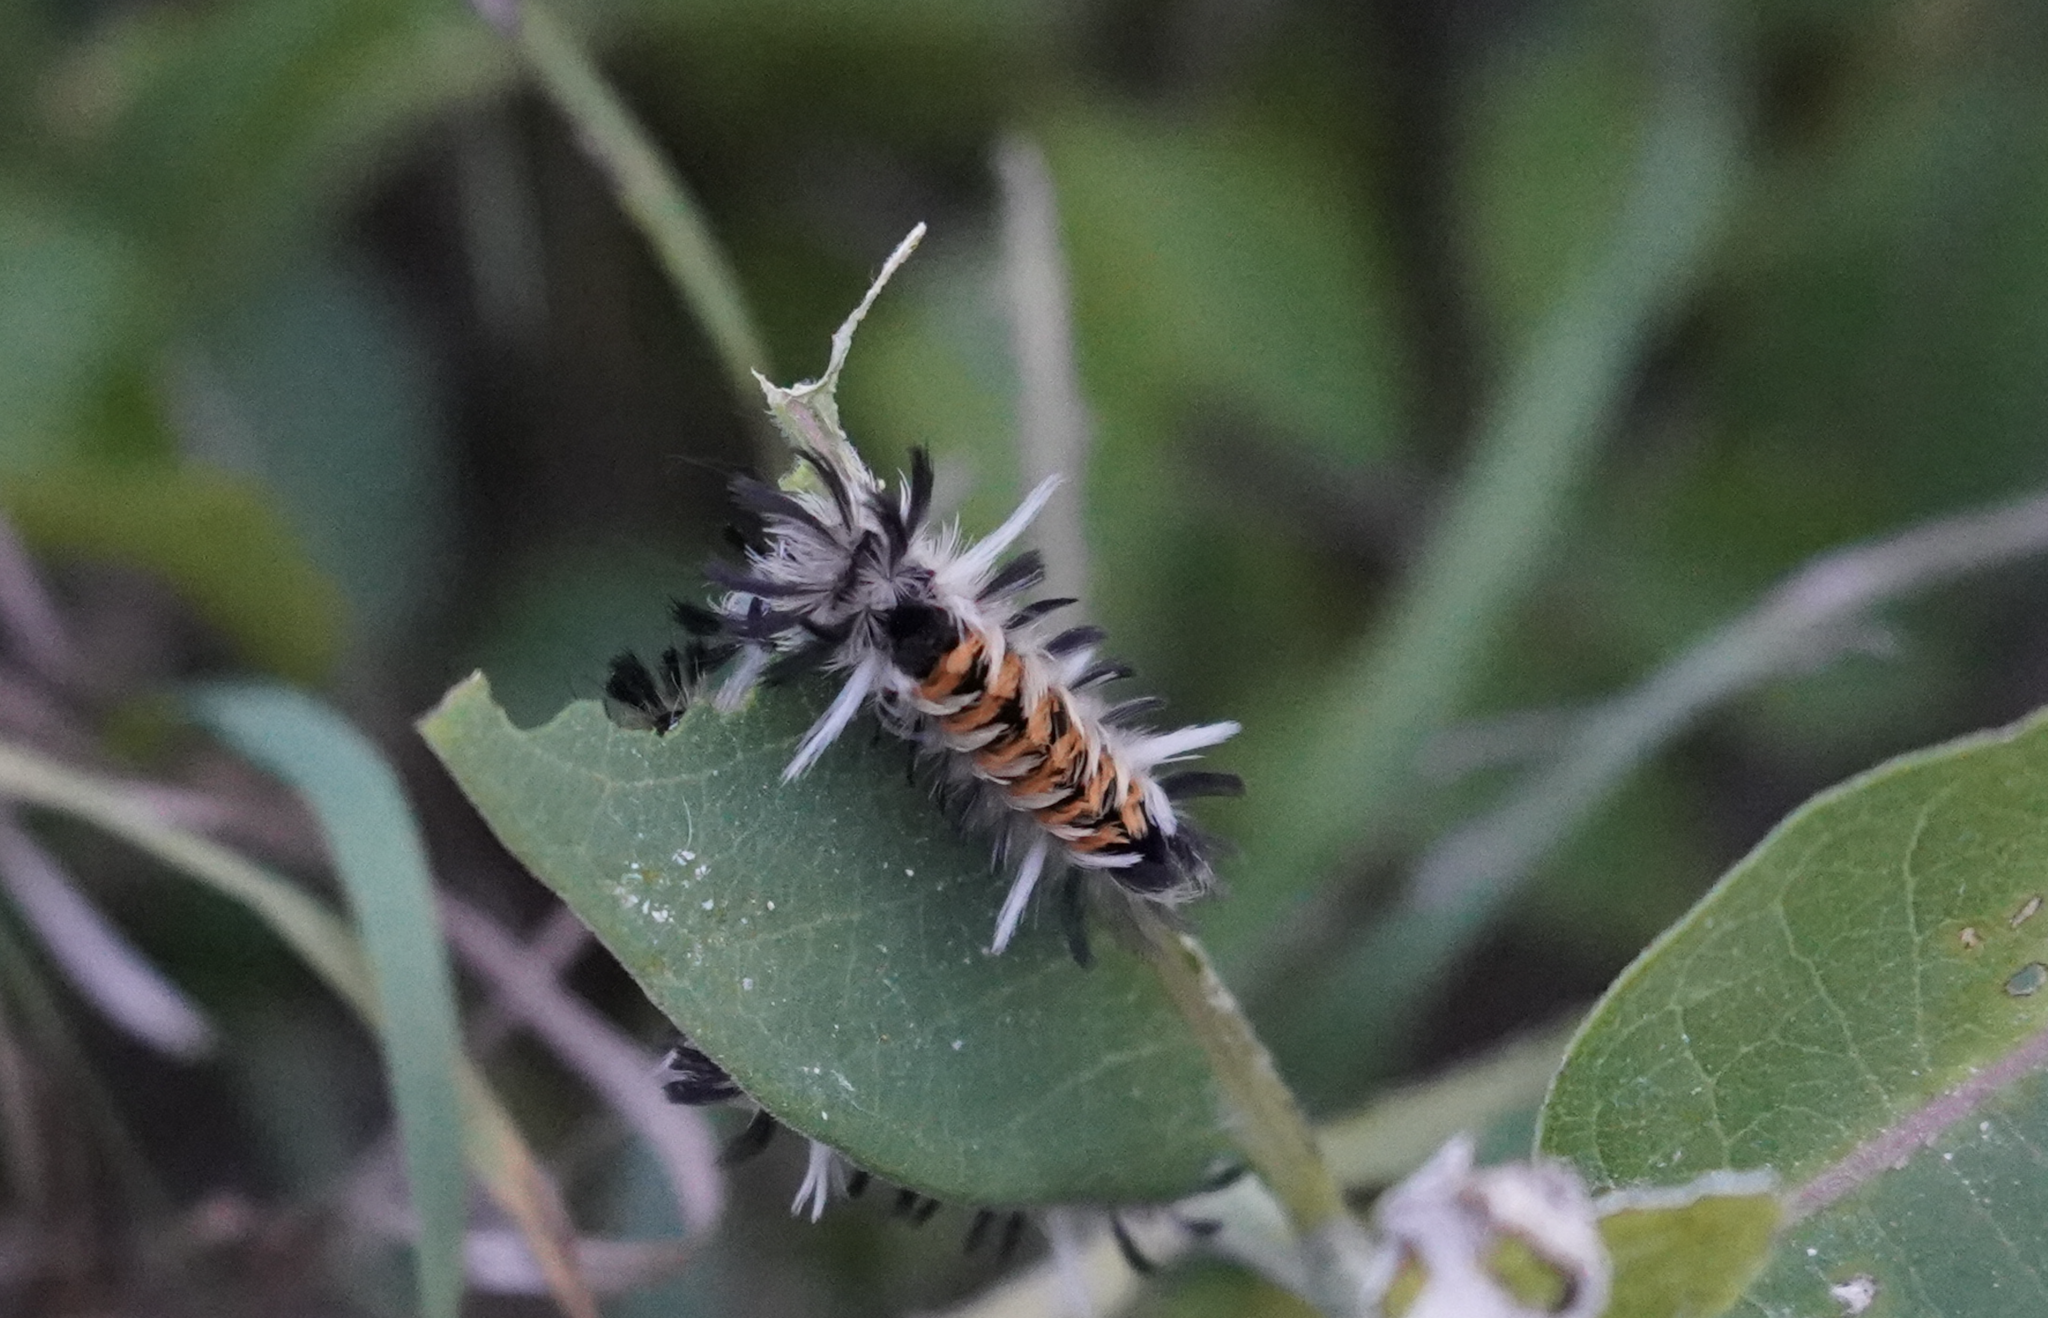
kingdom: Animalia
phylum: Arthropoda
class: Insecta
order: Lepidoptera
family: Erebidae
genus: Euchaetes
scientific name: Euchaetes egle
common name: Milkweed tussock moth
